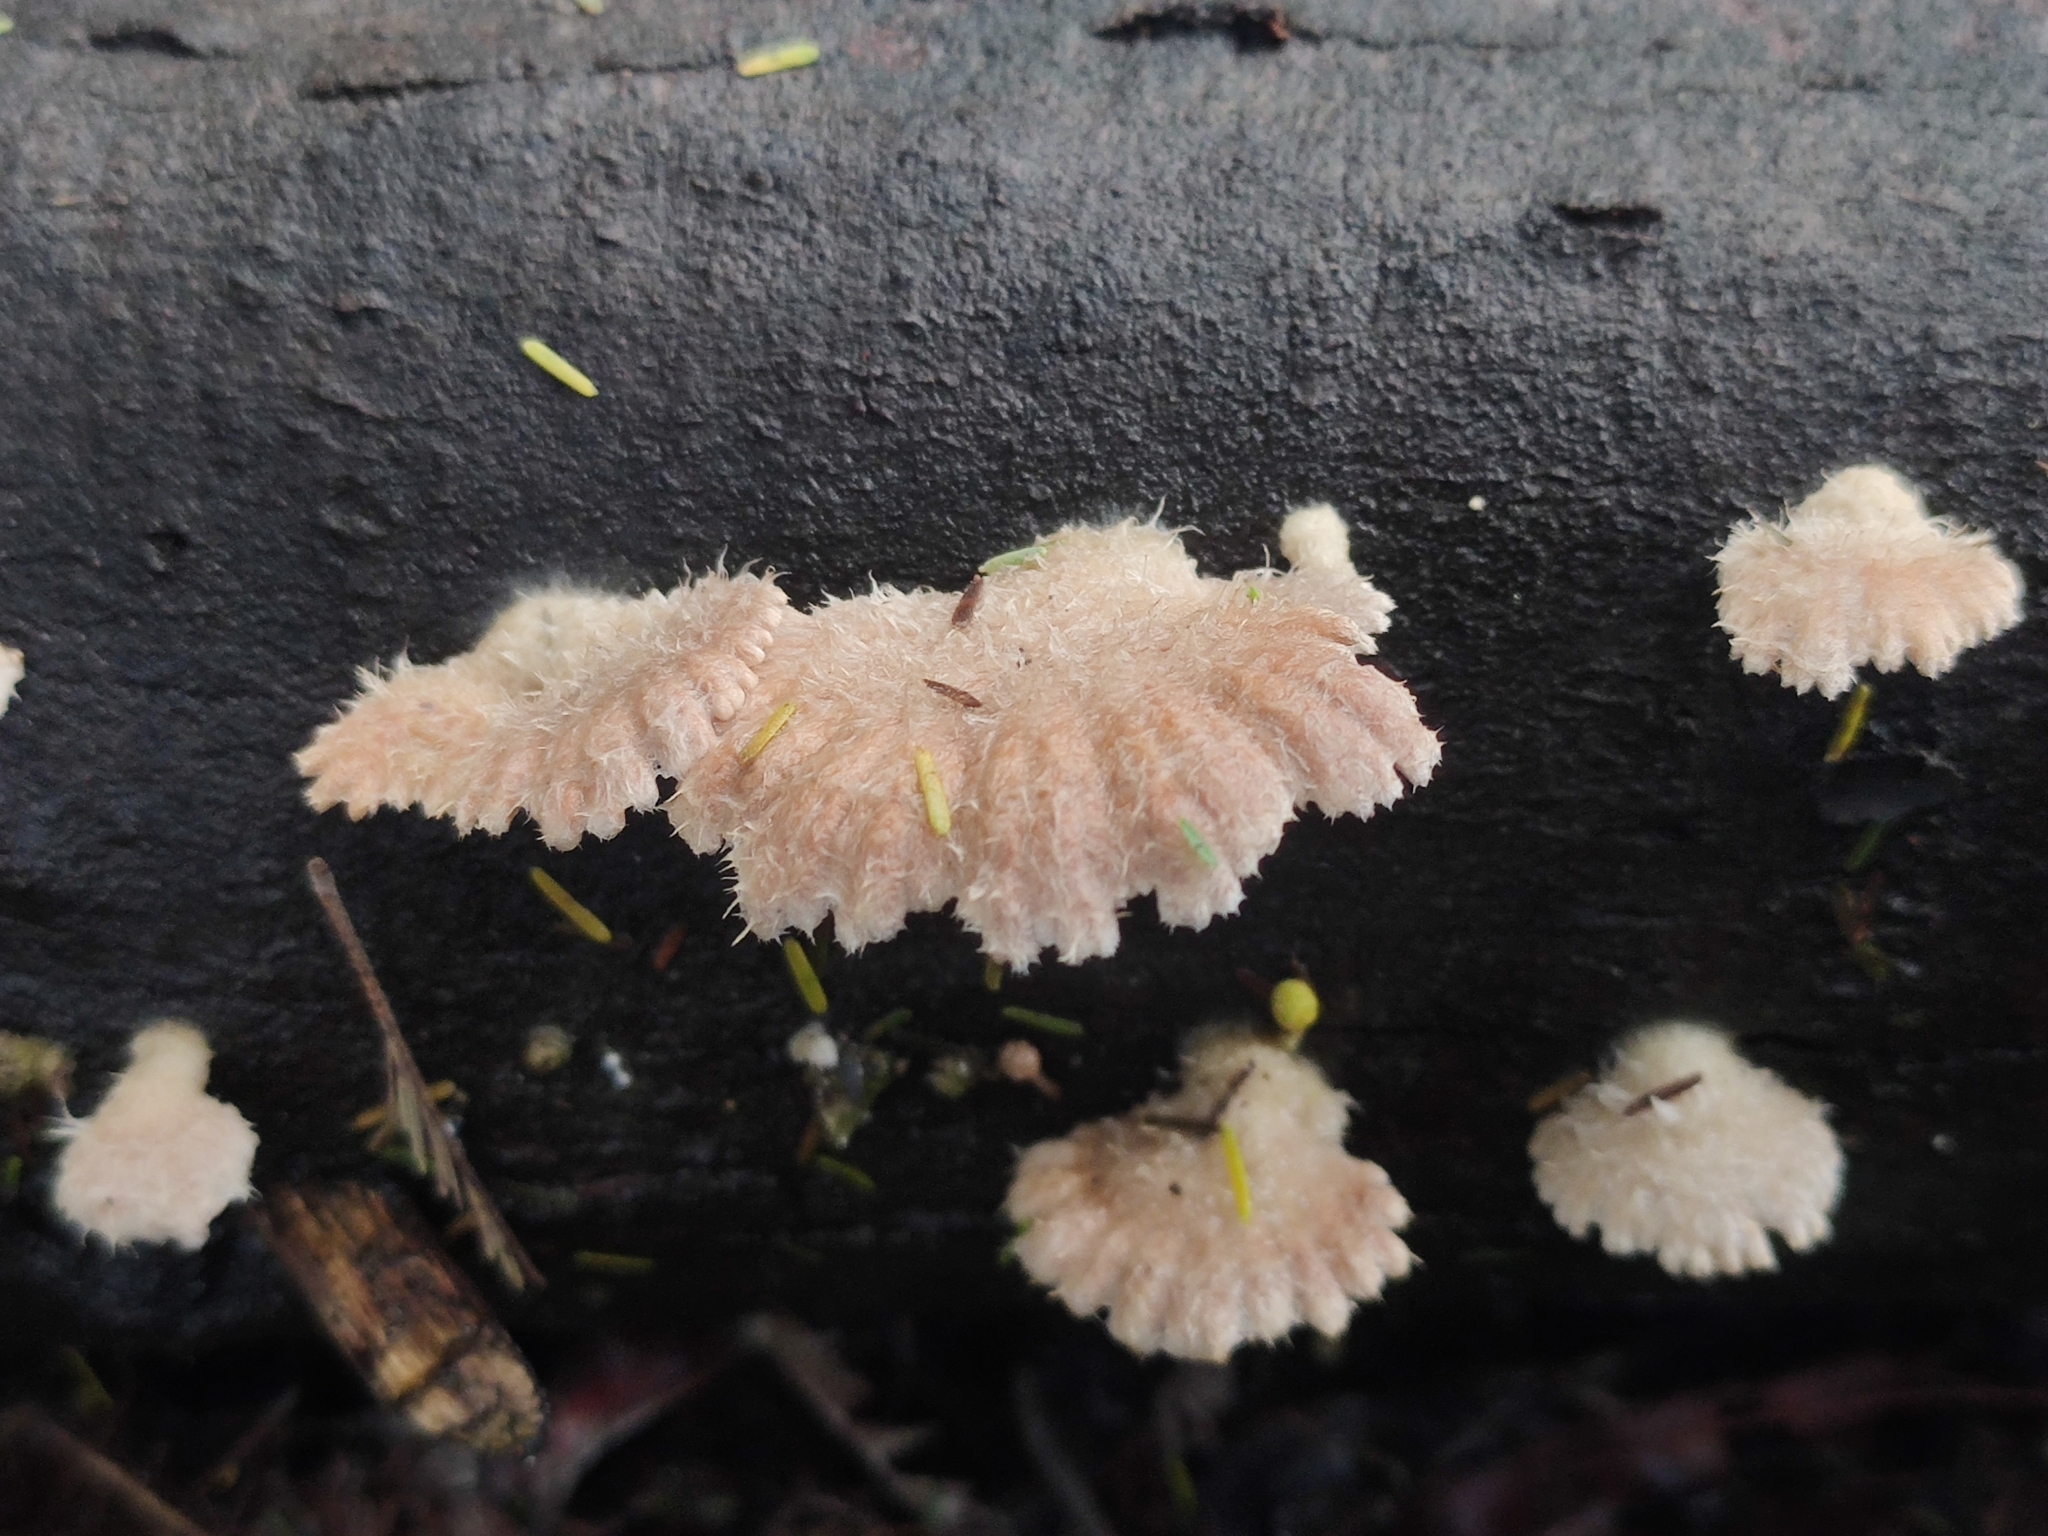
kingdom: Fungi
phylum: Basidiomycota
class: Agaricomycetes
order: Agaricales
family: Schizophyllaceae
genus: Schizophyllum
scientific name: Schizophyllum commune
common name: Common porecrust
